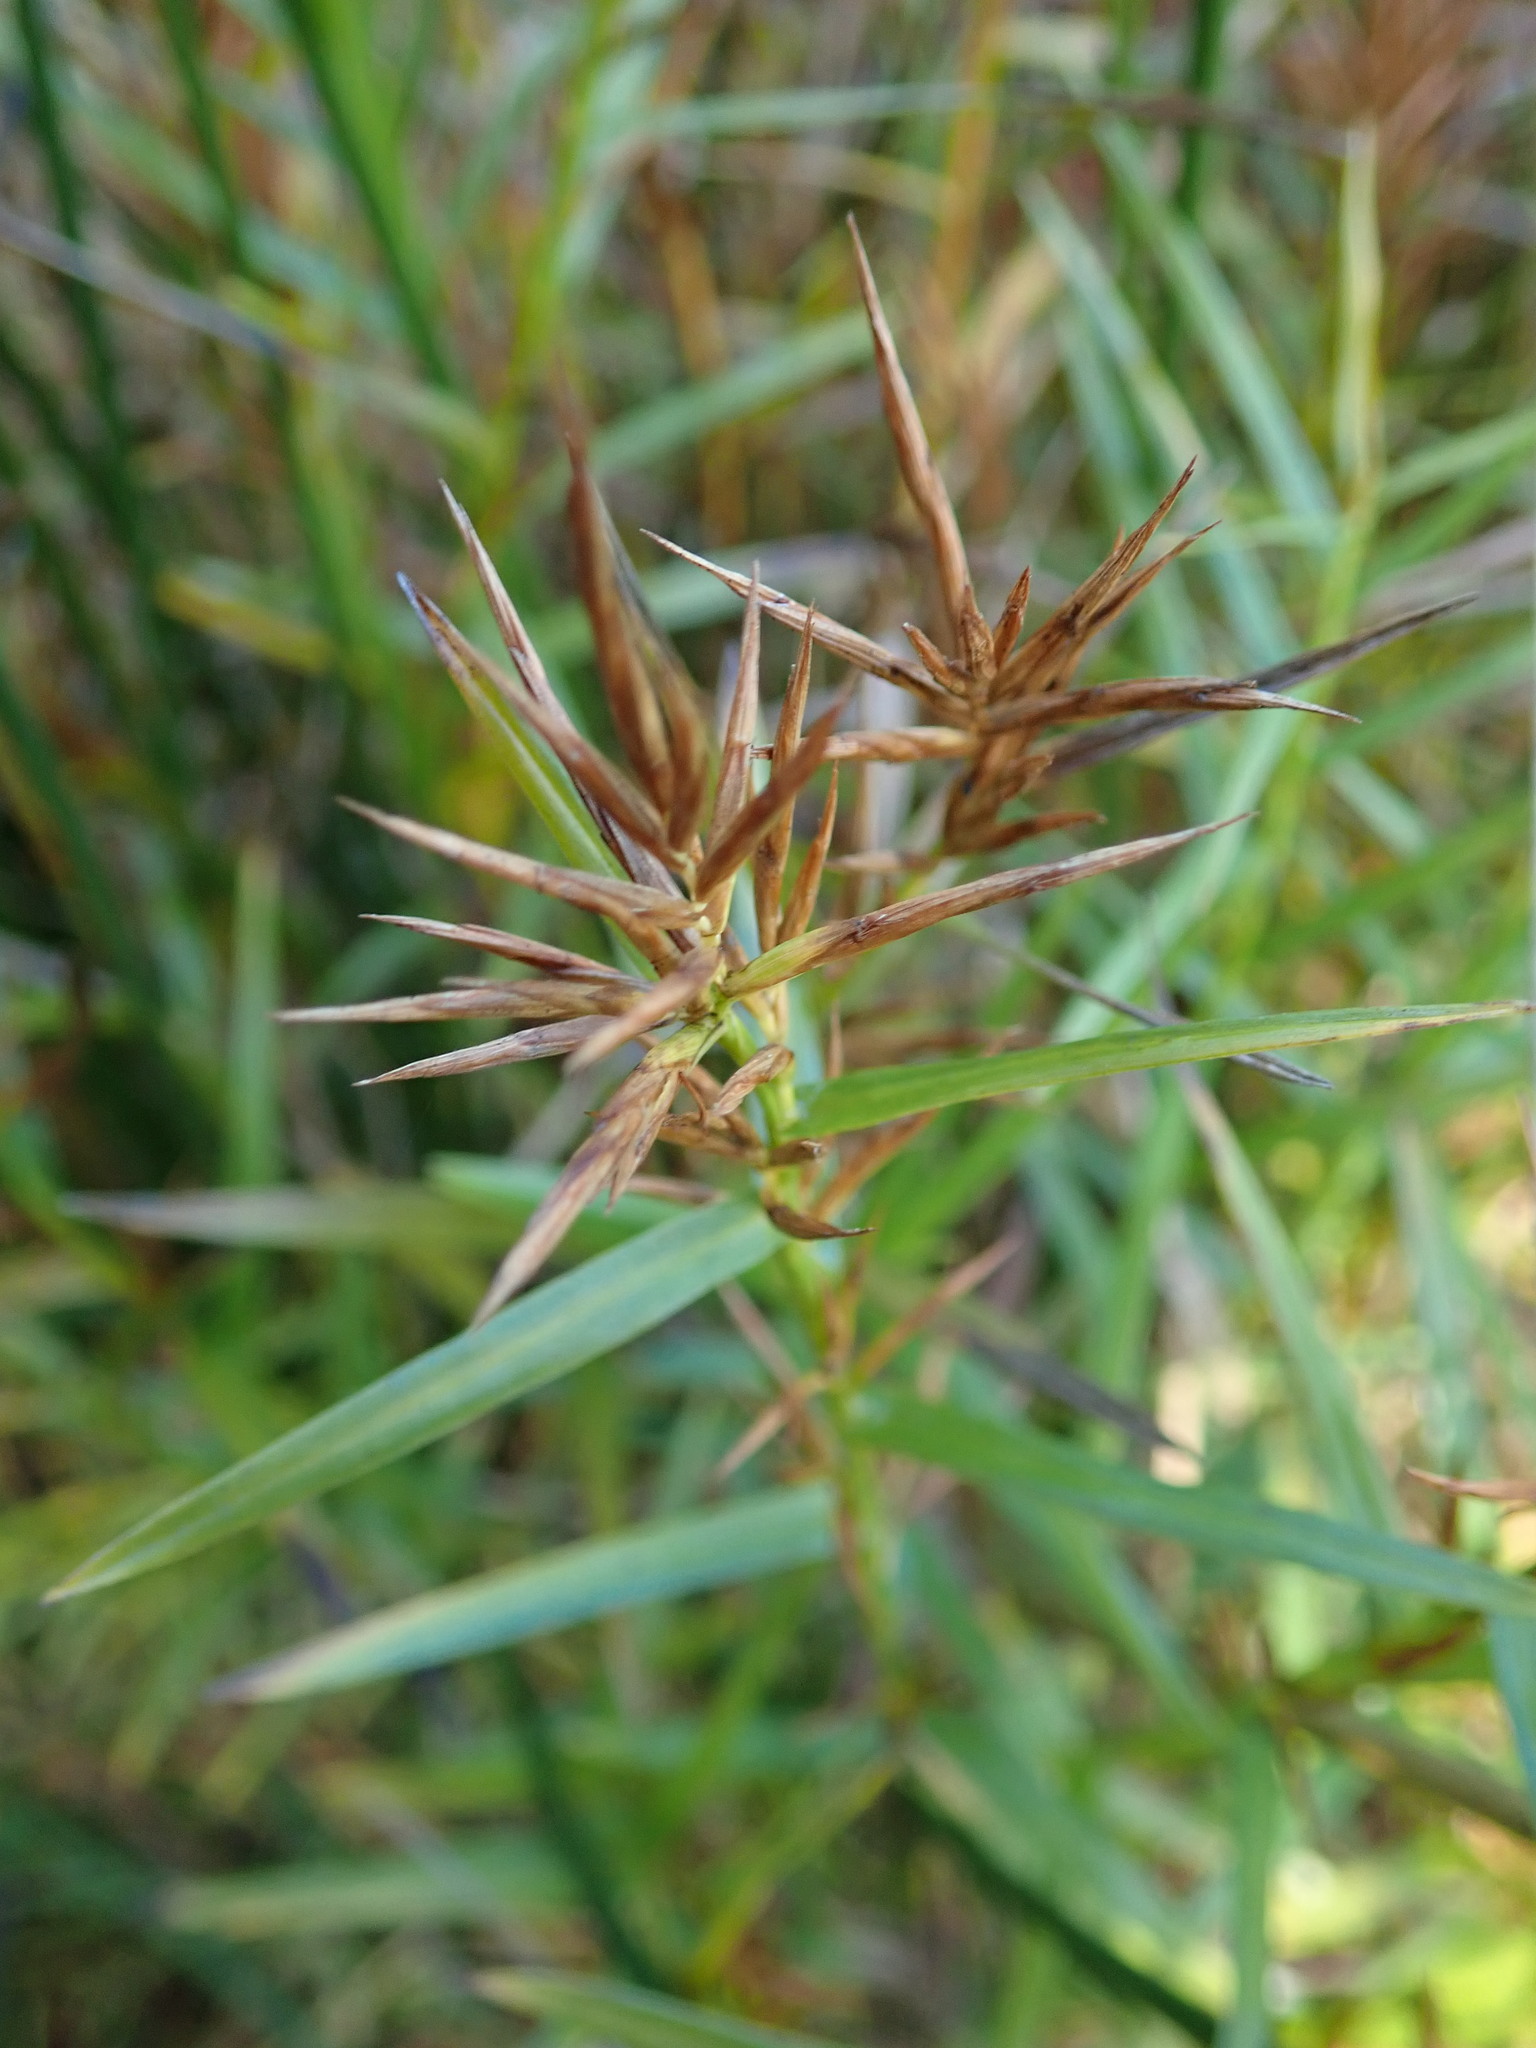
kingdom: Plantae
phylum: Tracheophyta
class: Liliopsida
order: Poales
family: Cyperaceae
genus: Dulichium
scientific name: Dulichium arundinaceum
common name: Three-way sedge
